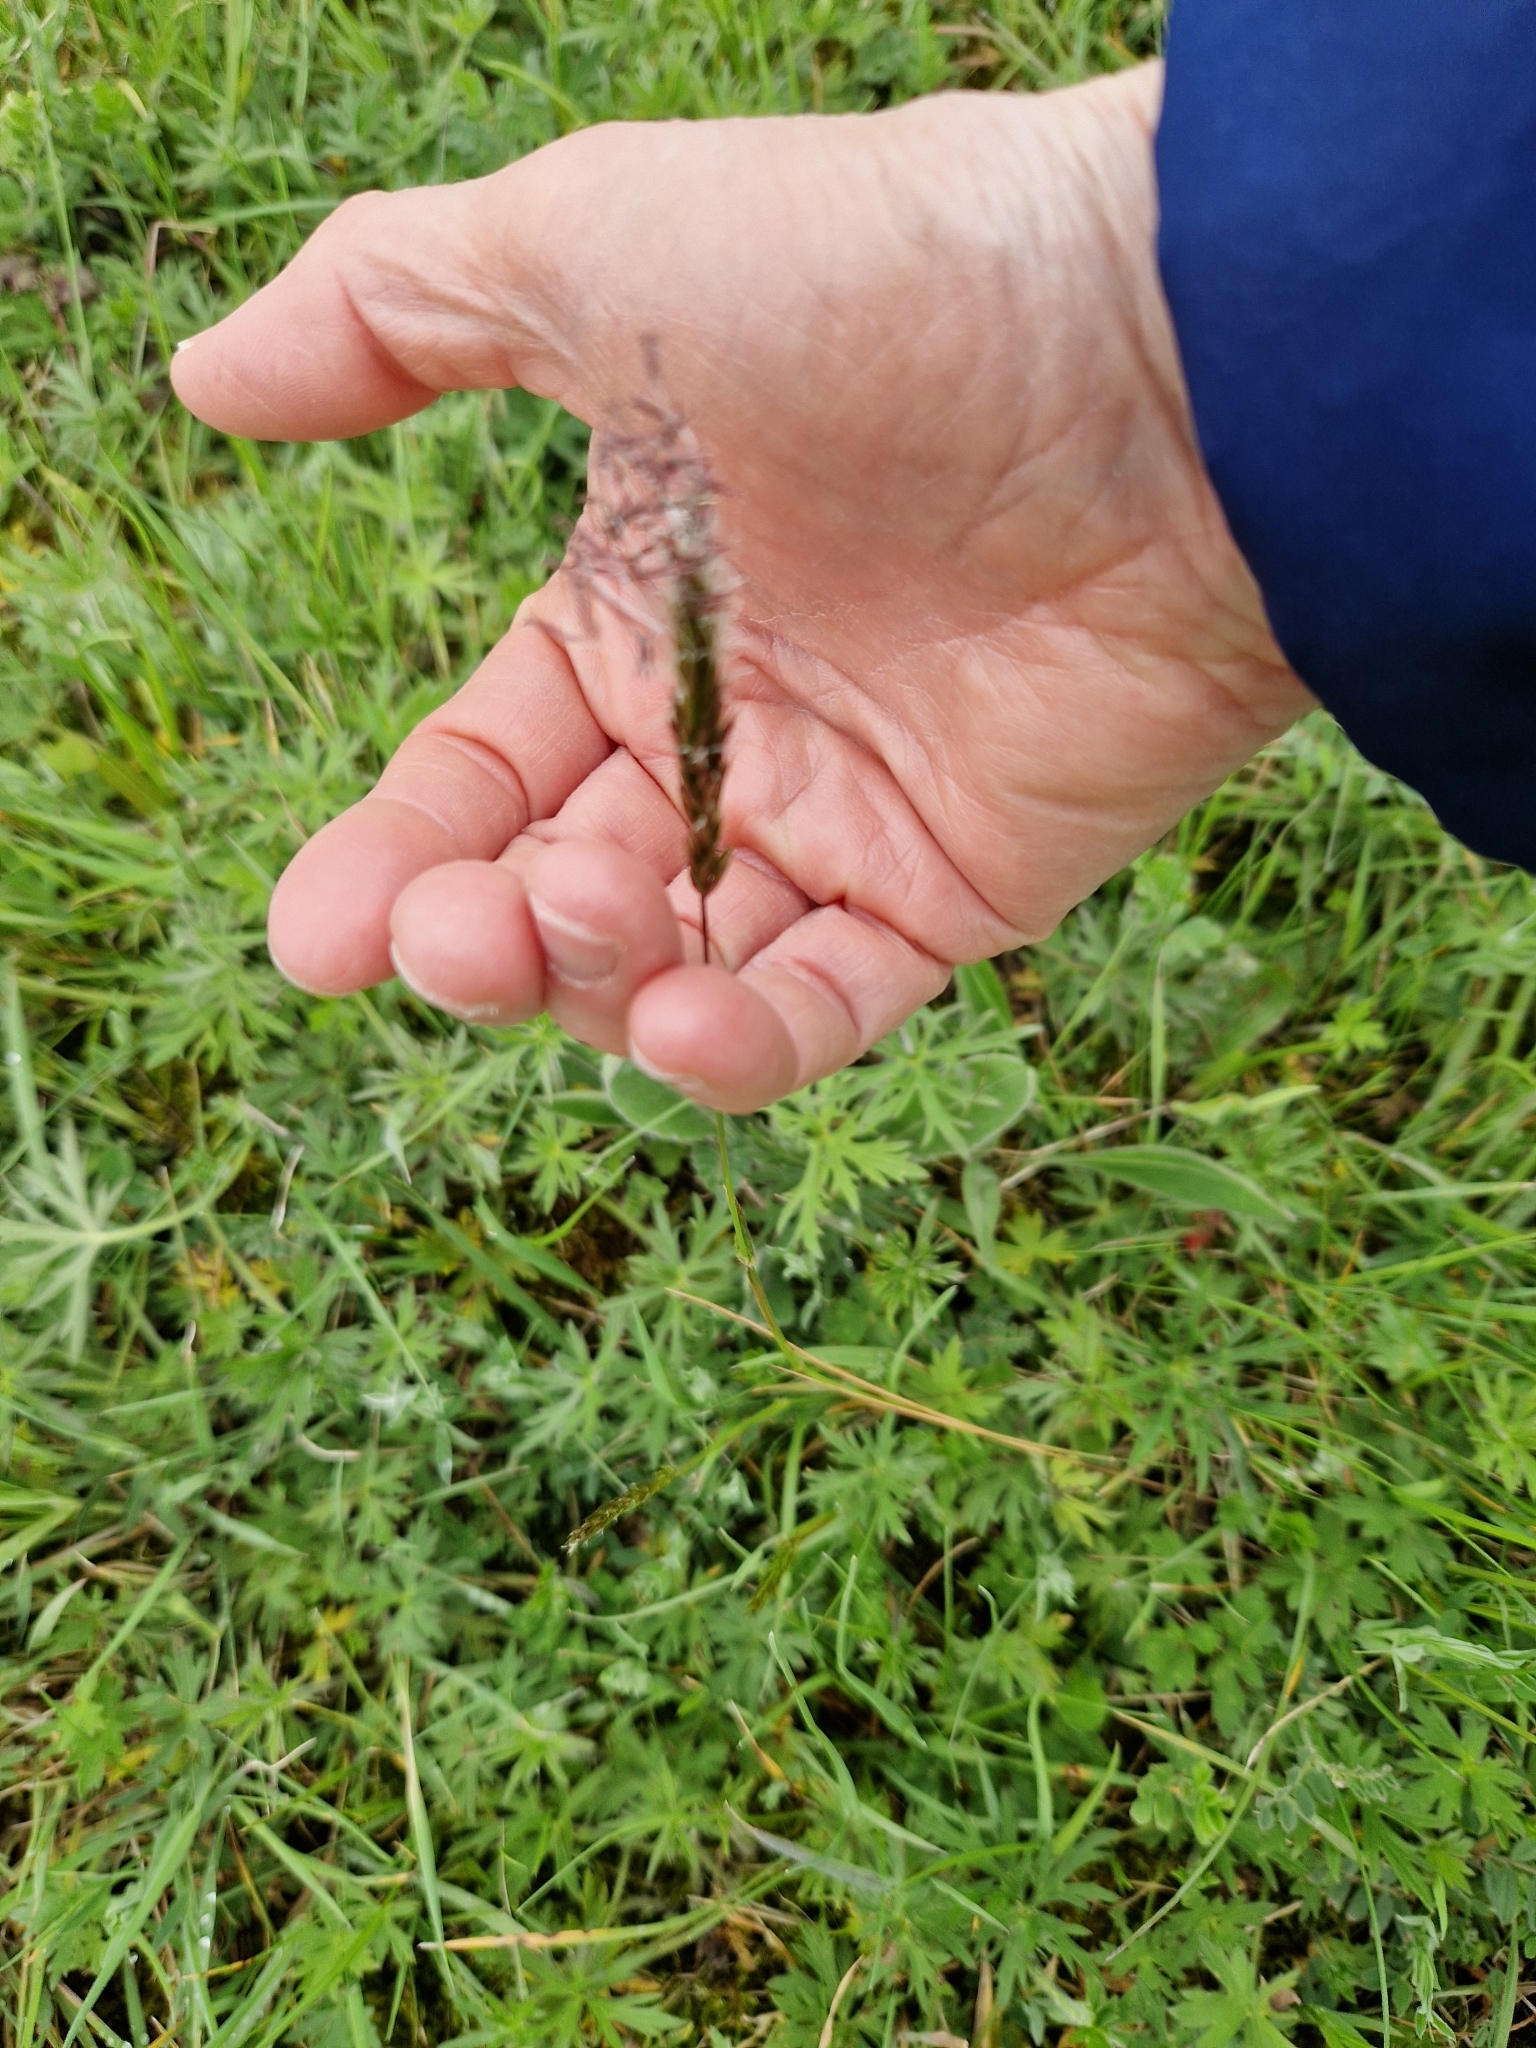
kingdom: Plantae
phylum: Tracheophyta
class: Liliopsida
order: Poales
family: Poaceae
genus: Anthoxanthum
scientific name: Anthoxanthum odoratum
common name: Sweet vernalgrass
